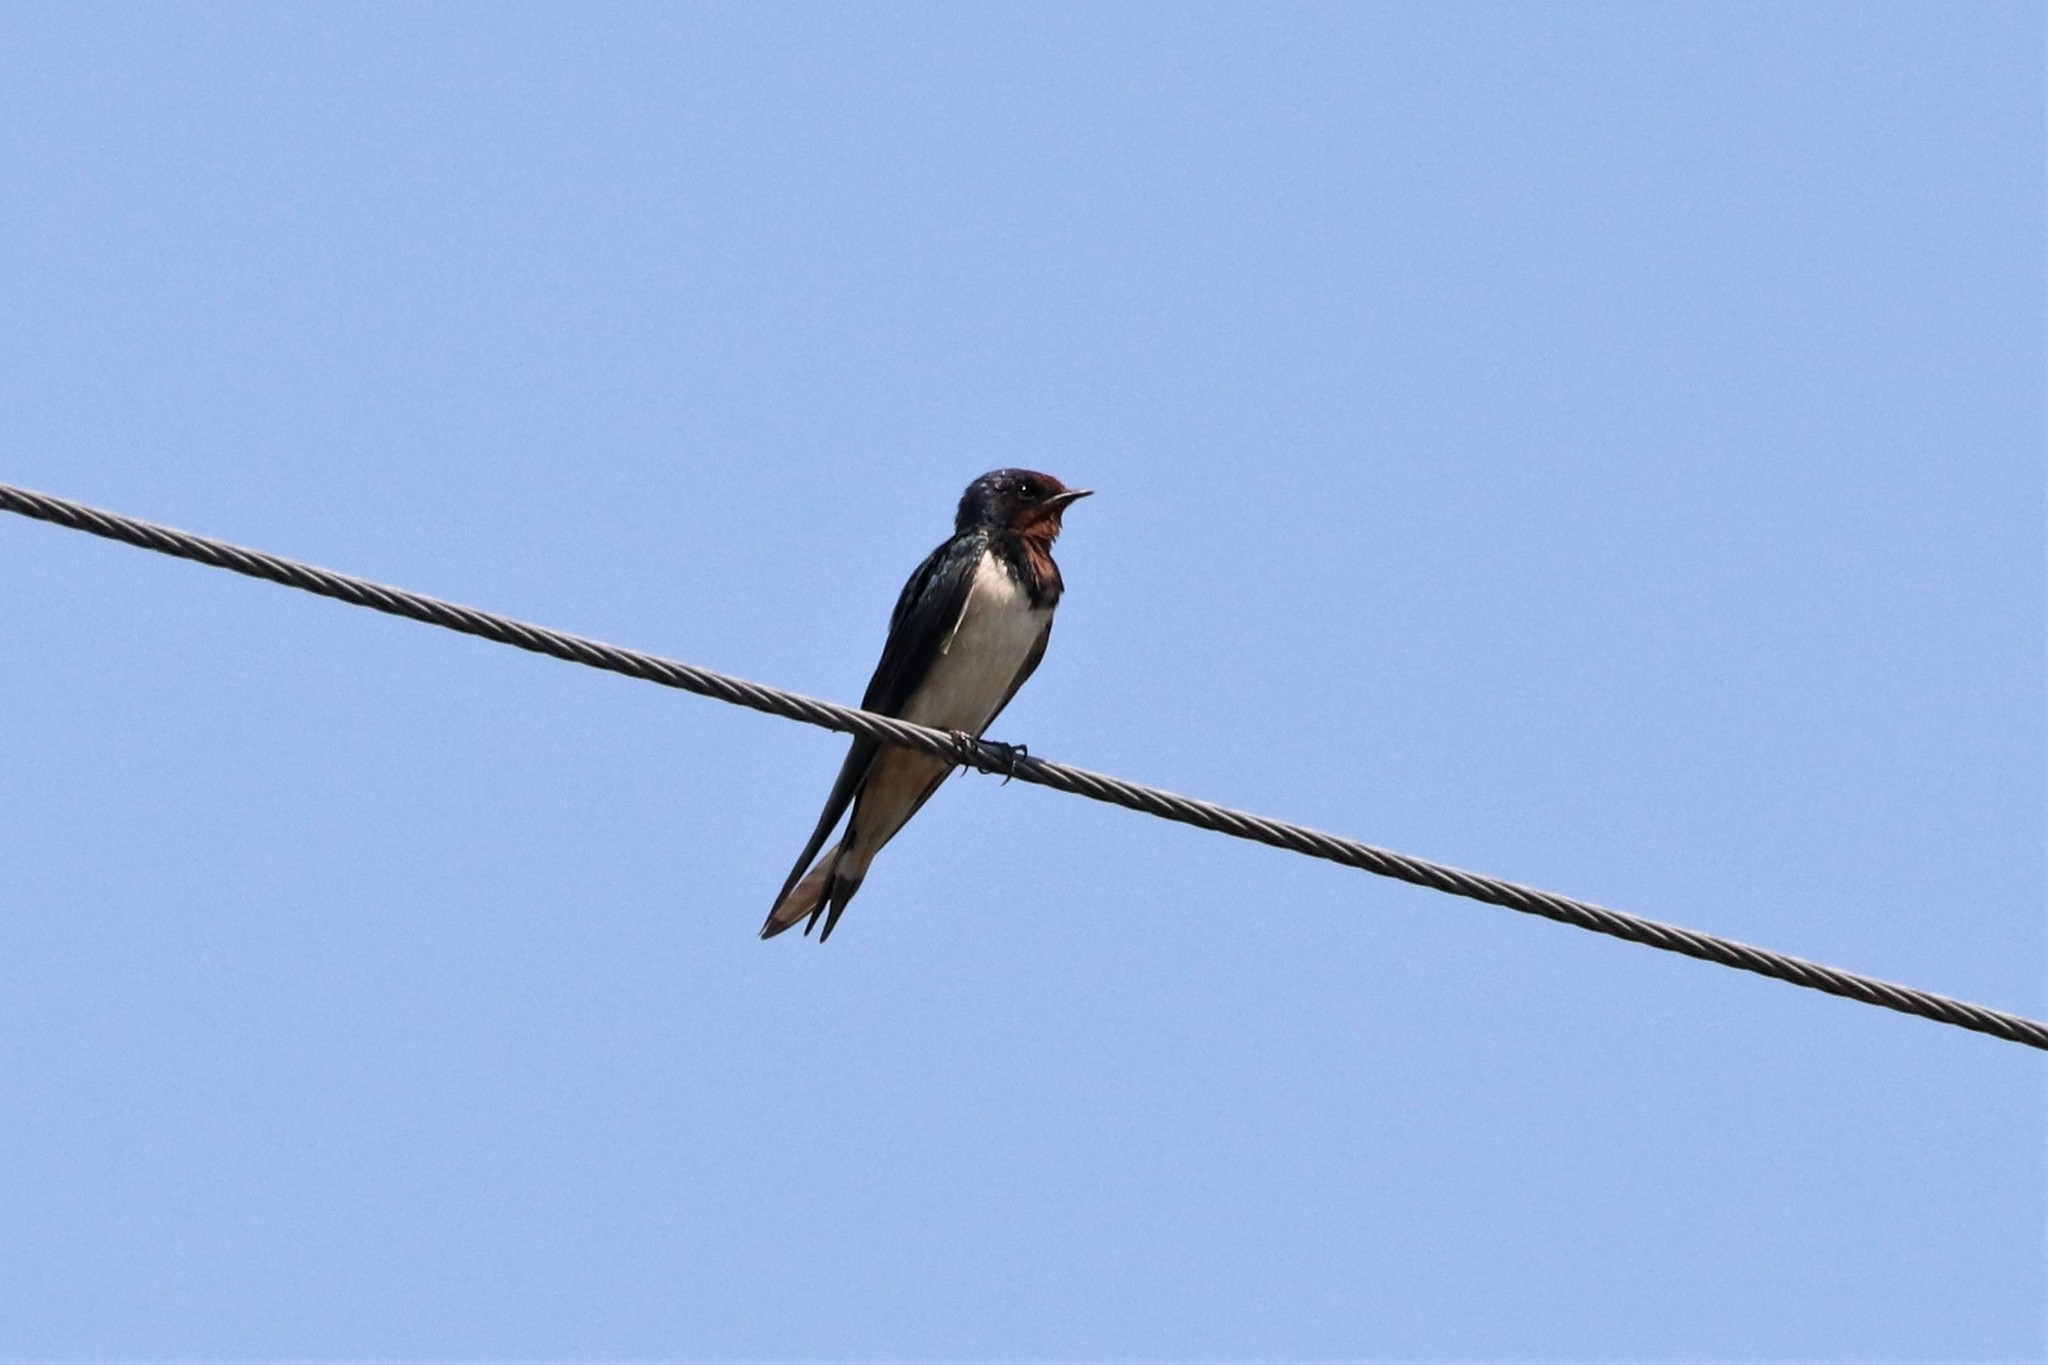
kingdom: Animalia
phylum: Chordata
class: Aves
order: Passeriformes
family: Hirundinidae
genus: Hirundo
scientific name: Hirundo rustica
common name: Barn swallow
